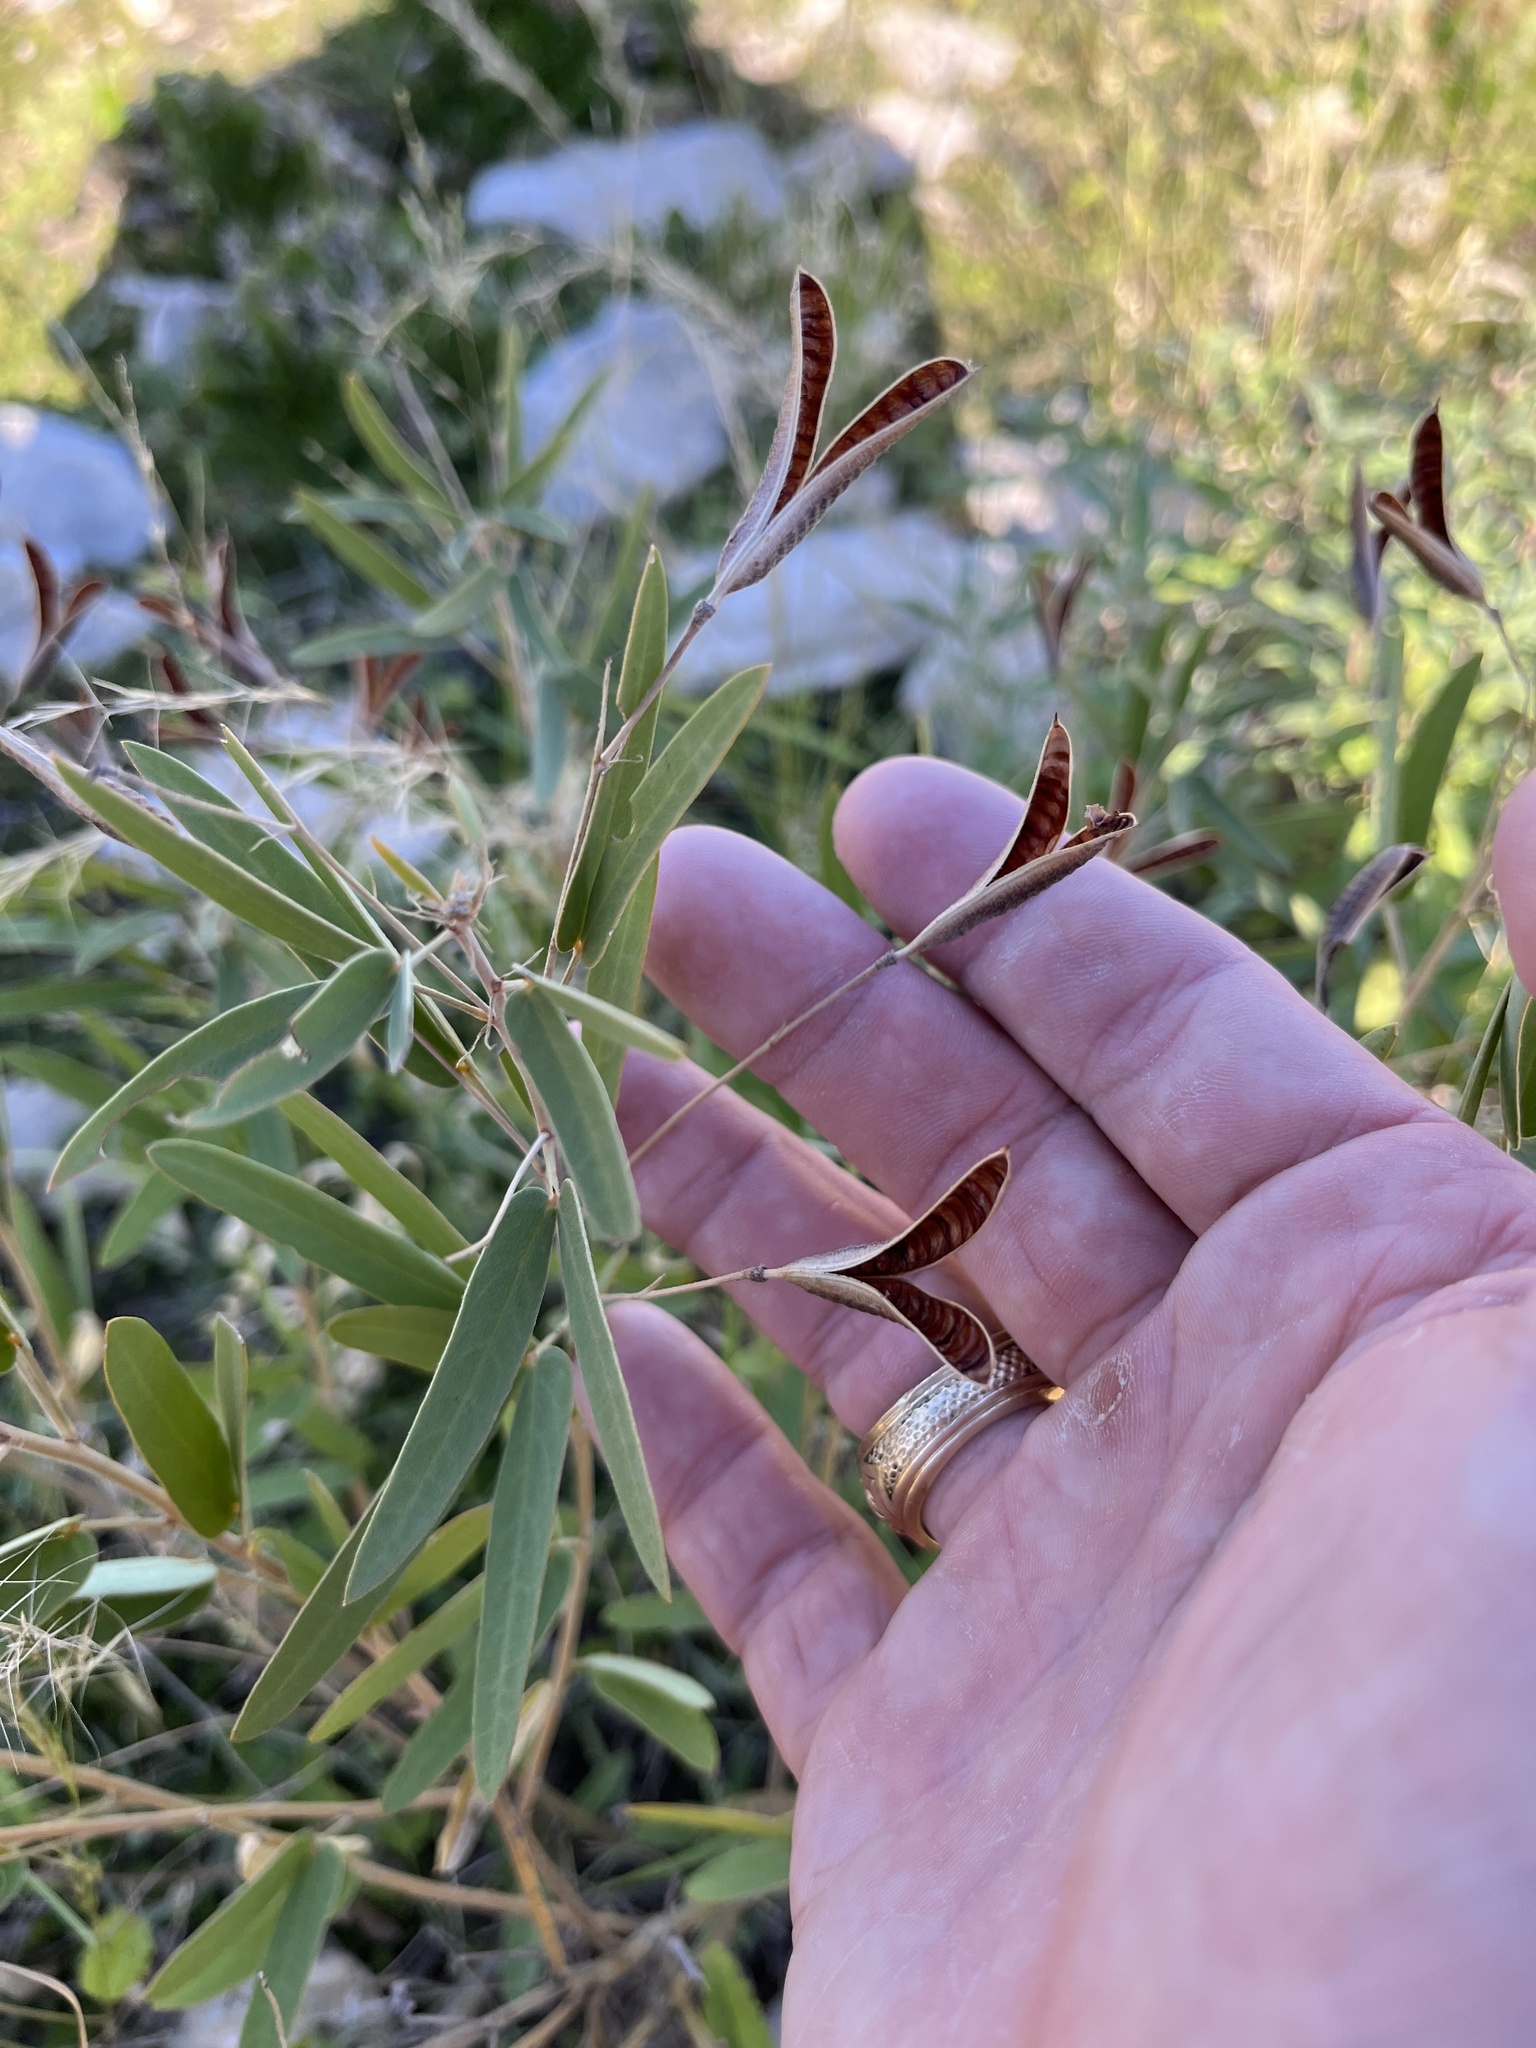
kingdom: Plantae
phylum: Tracheophyta
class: Magnoliopsida
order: Fabales
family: Fabaceae
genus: Senna
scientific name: Senna roemeriana
